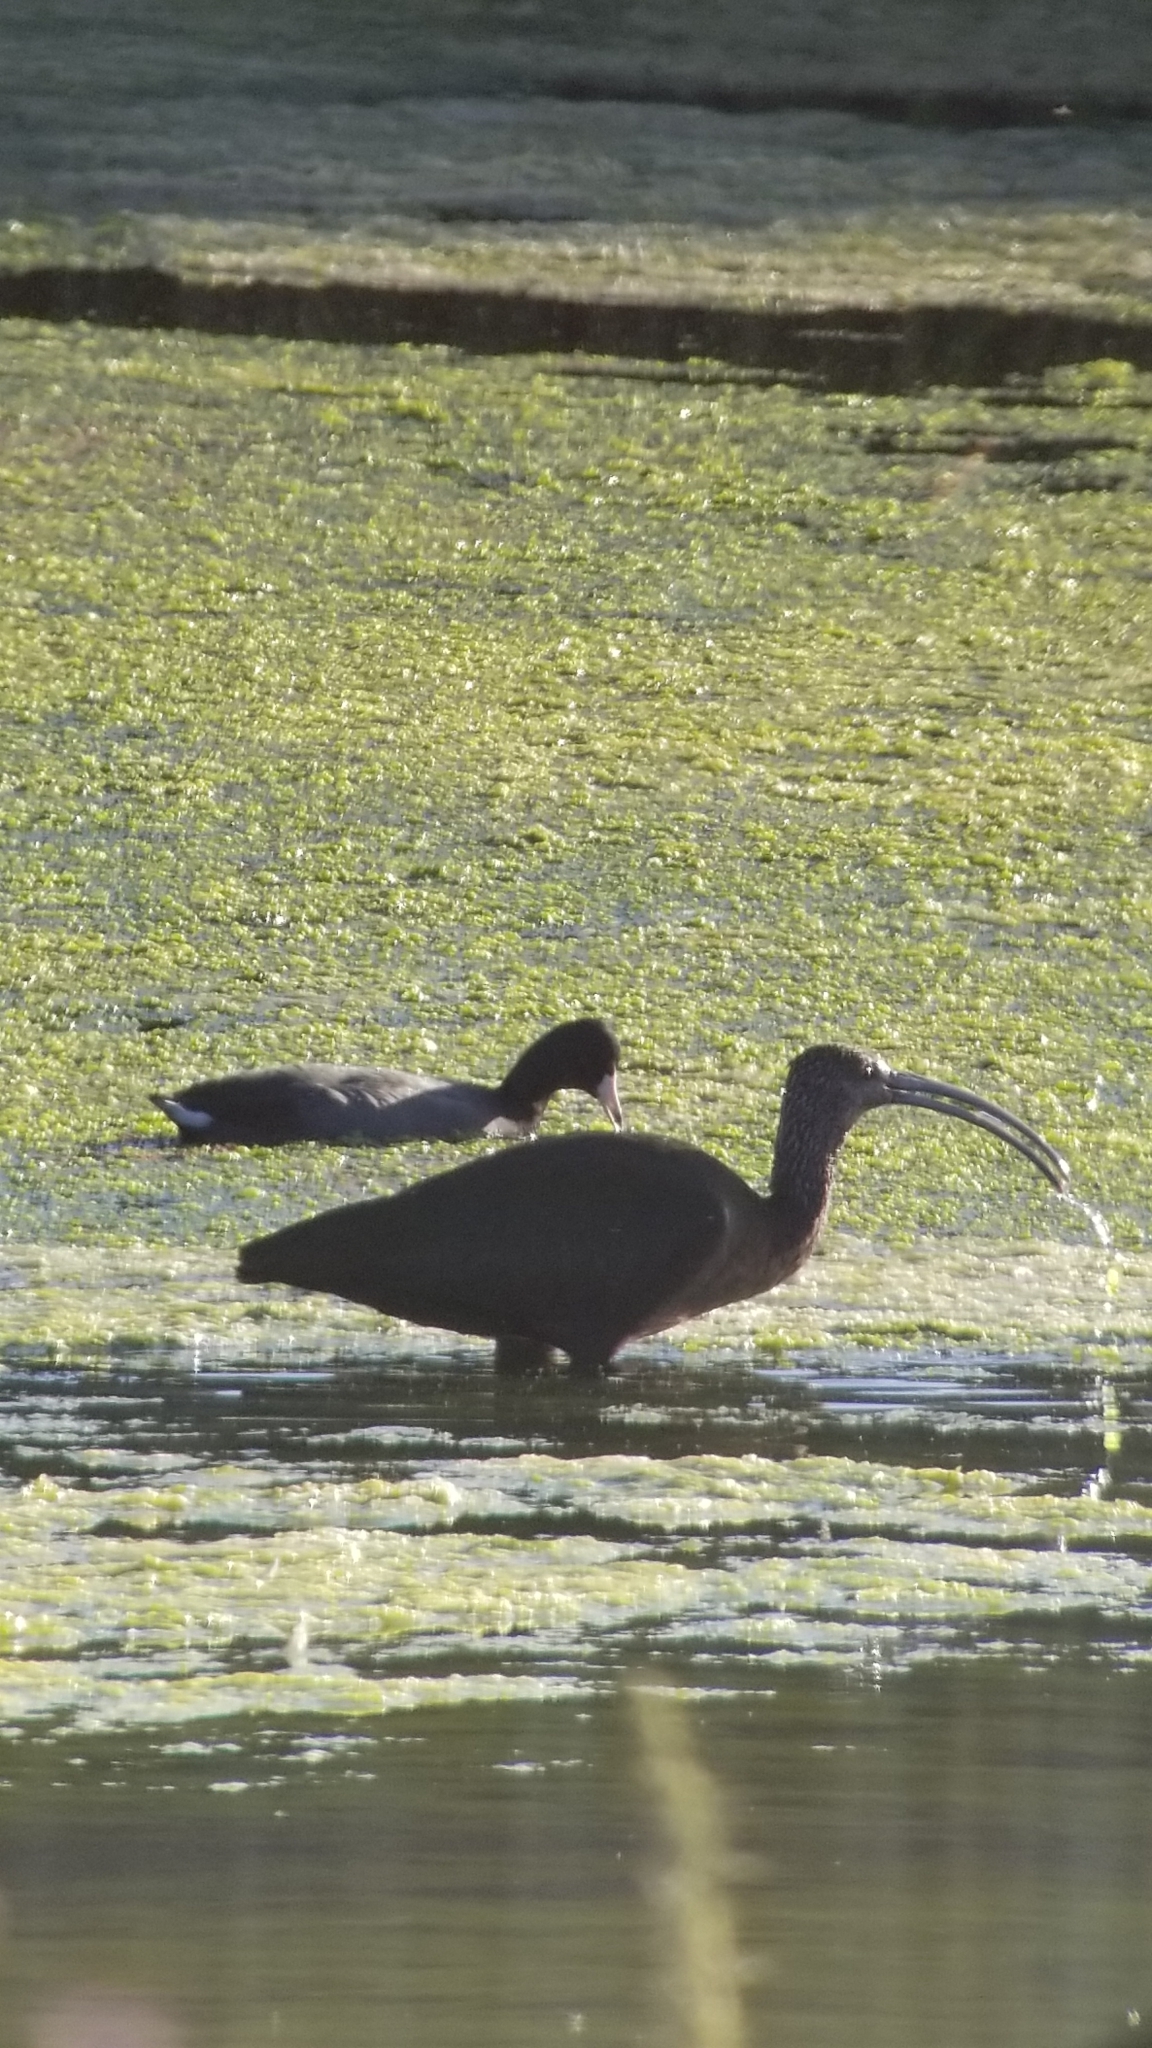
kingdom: Animalia
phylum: Chordata
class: Aves
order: Pelecaniformes
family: Threskiornithidae
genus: Plegadis
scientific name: Plegadis chihi
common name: White-faced ibis
